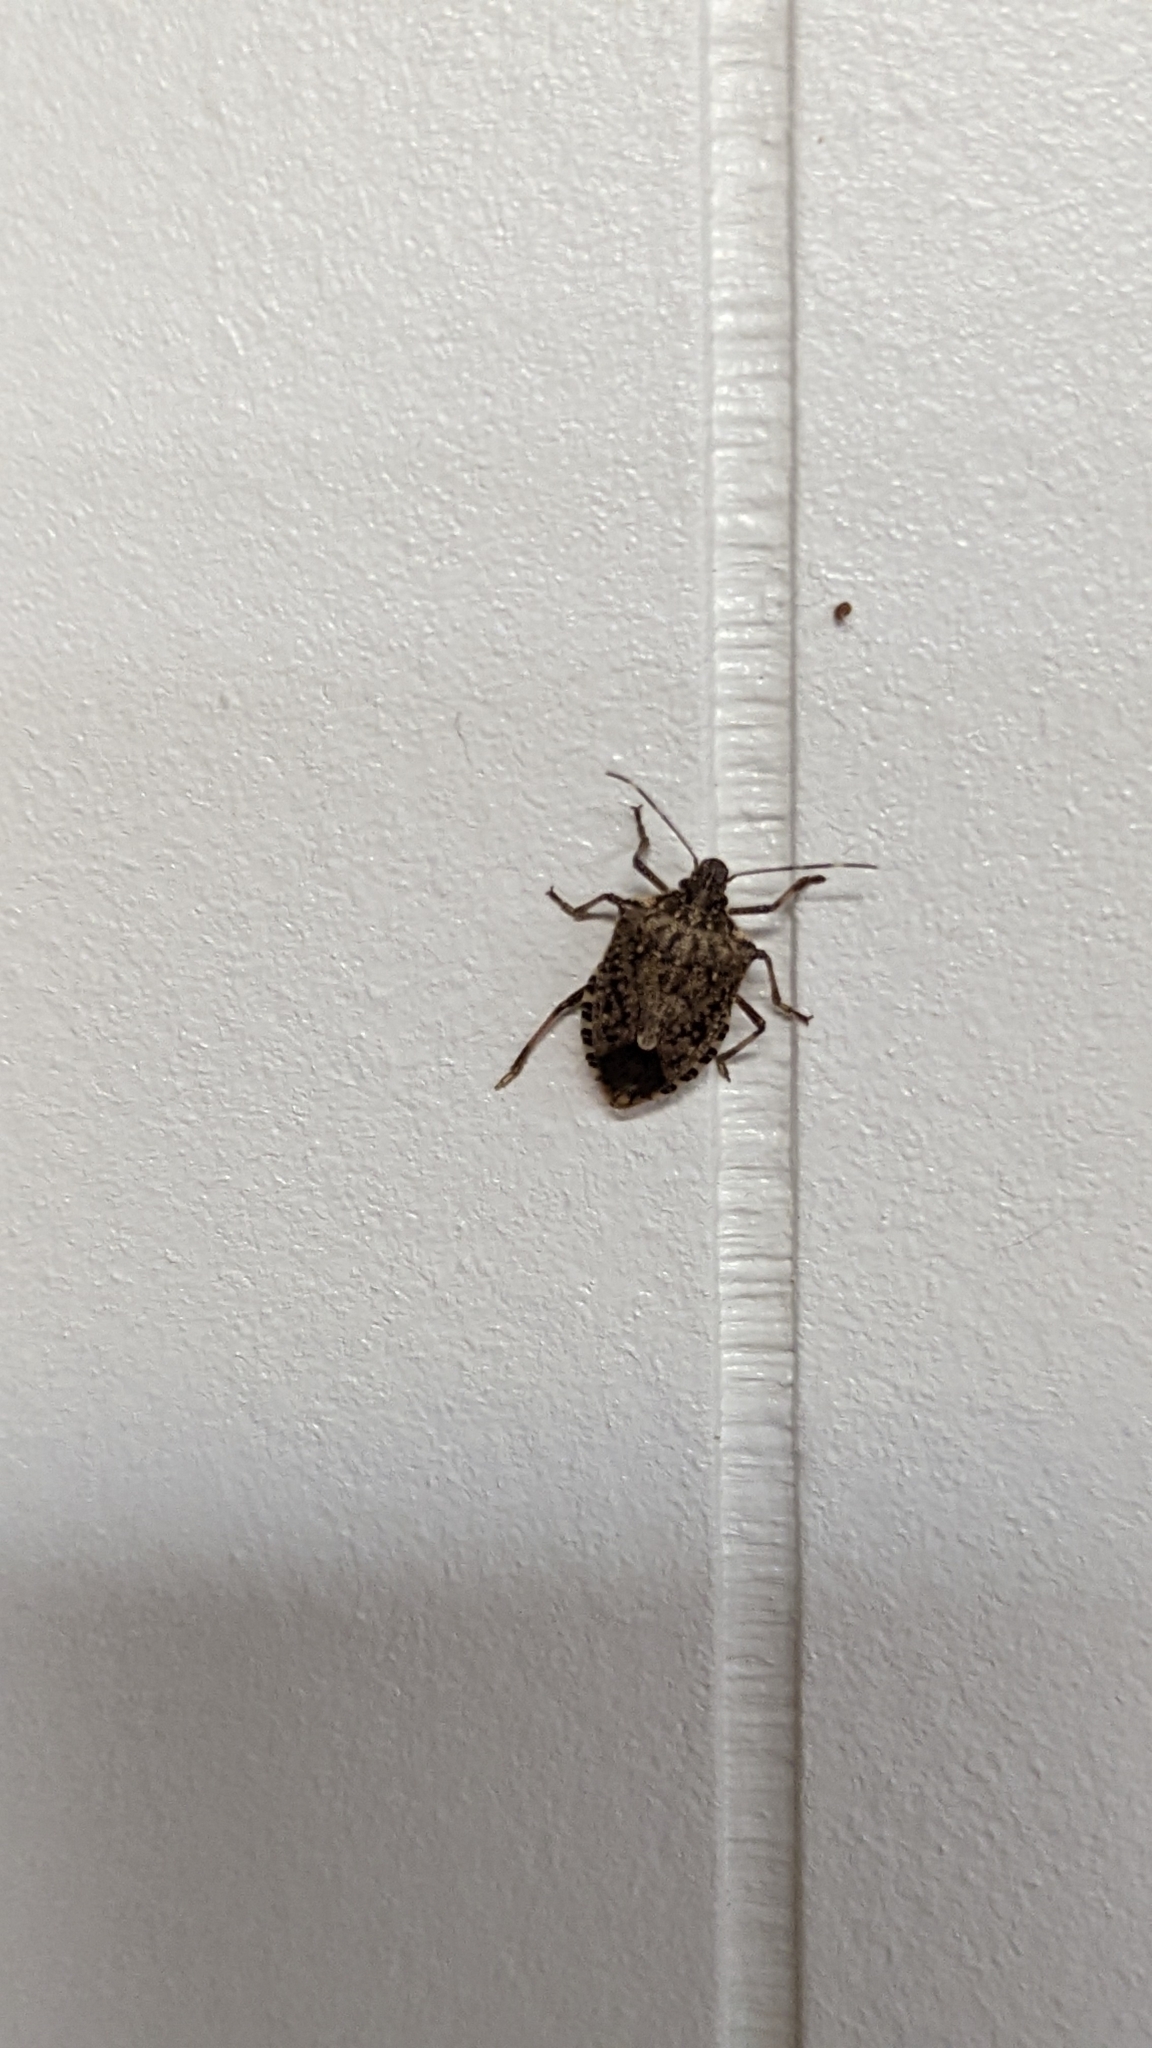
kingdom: Animalia
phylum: Arthropoda
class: Insecta
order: Hemiptera
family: Pentatomidae
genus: Halyomorpha
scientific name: Halyomorpha halys
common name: Brown marmorated stink bug
